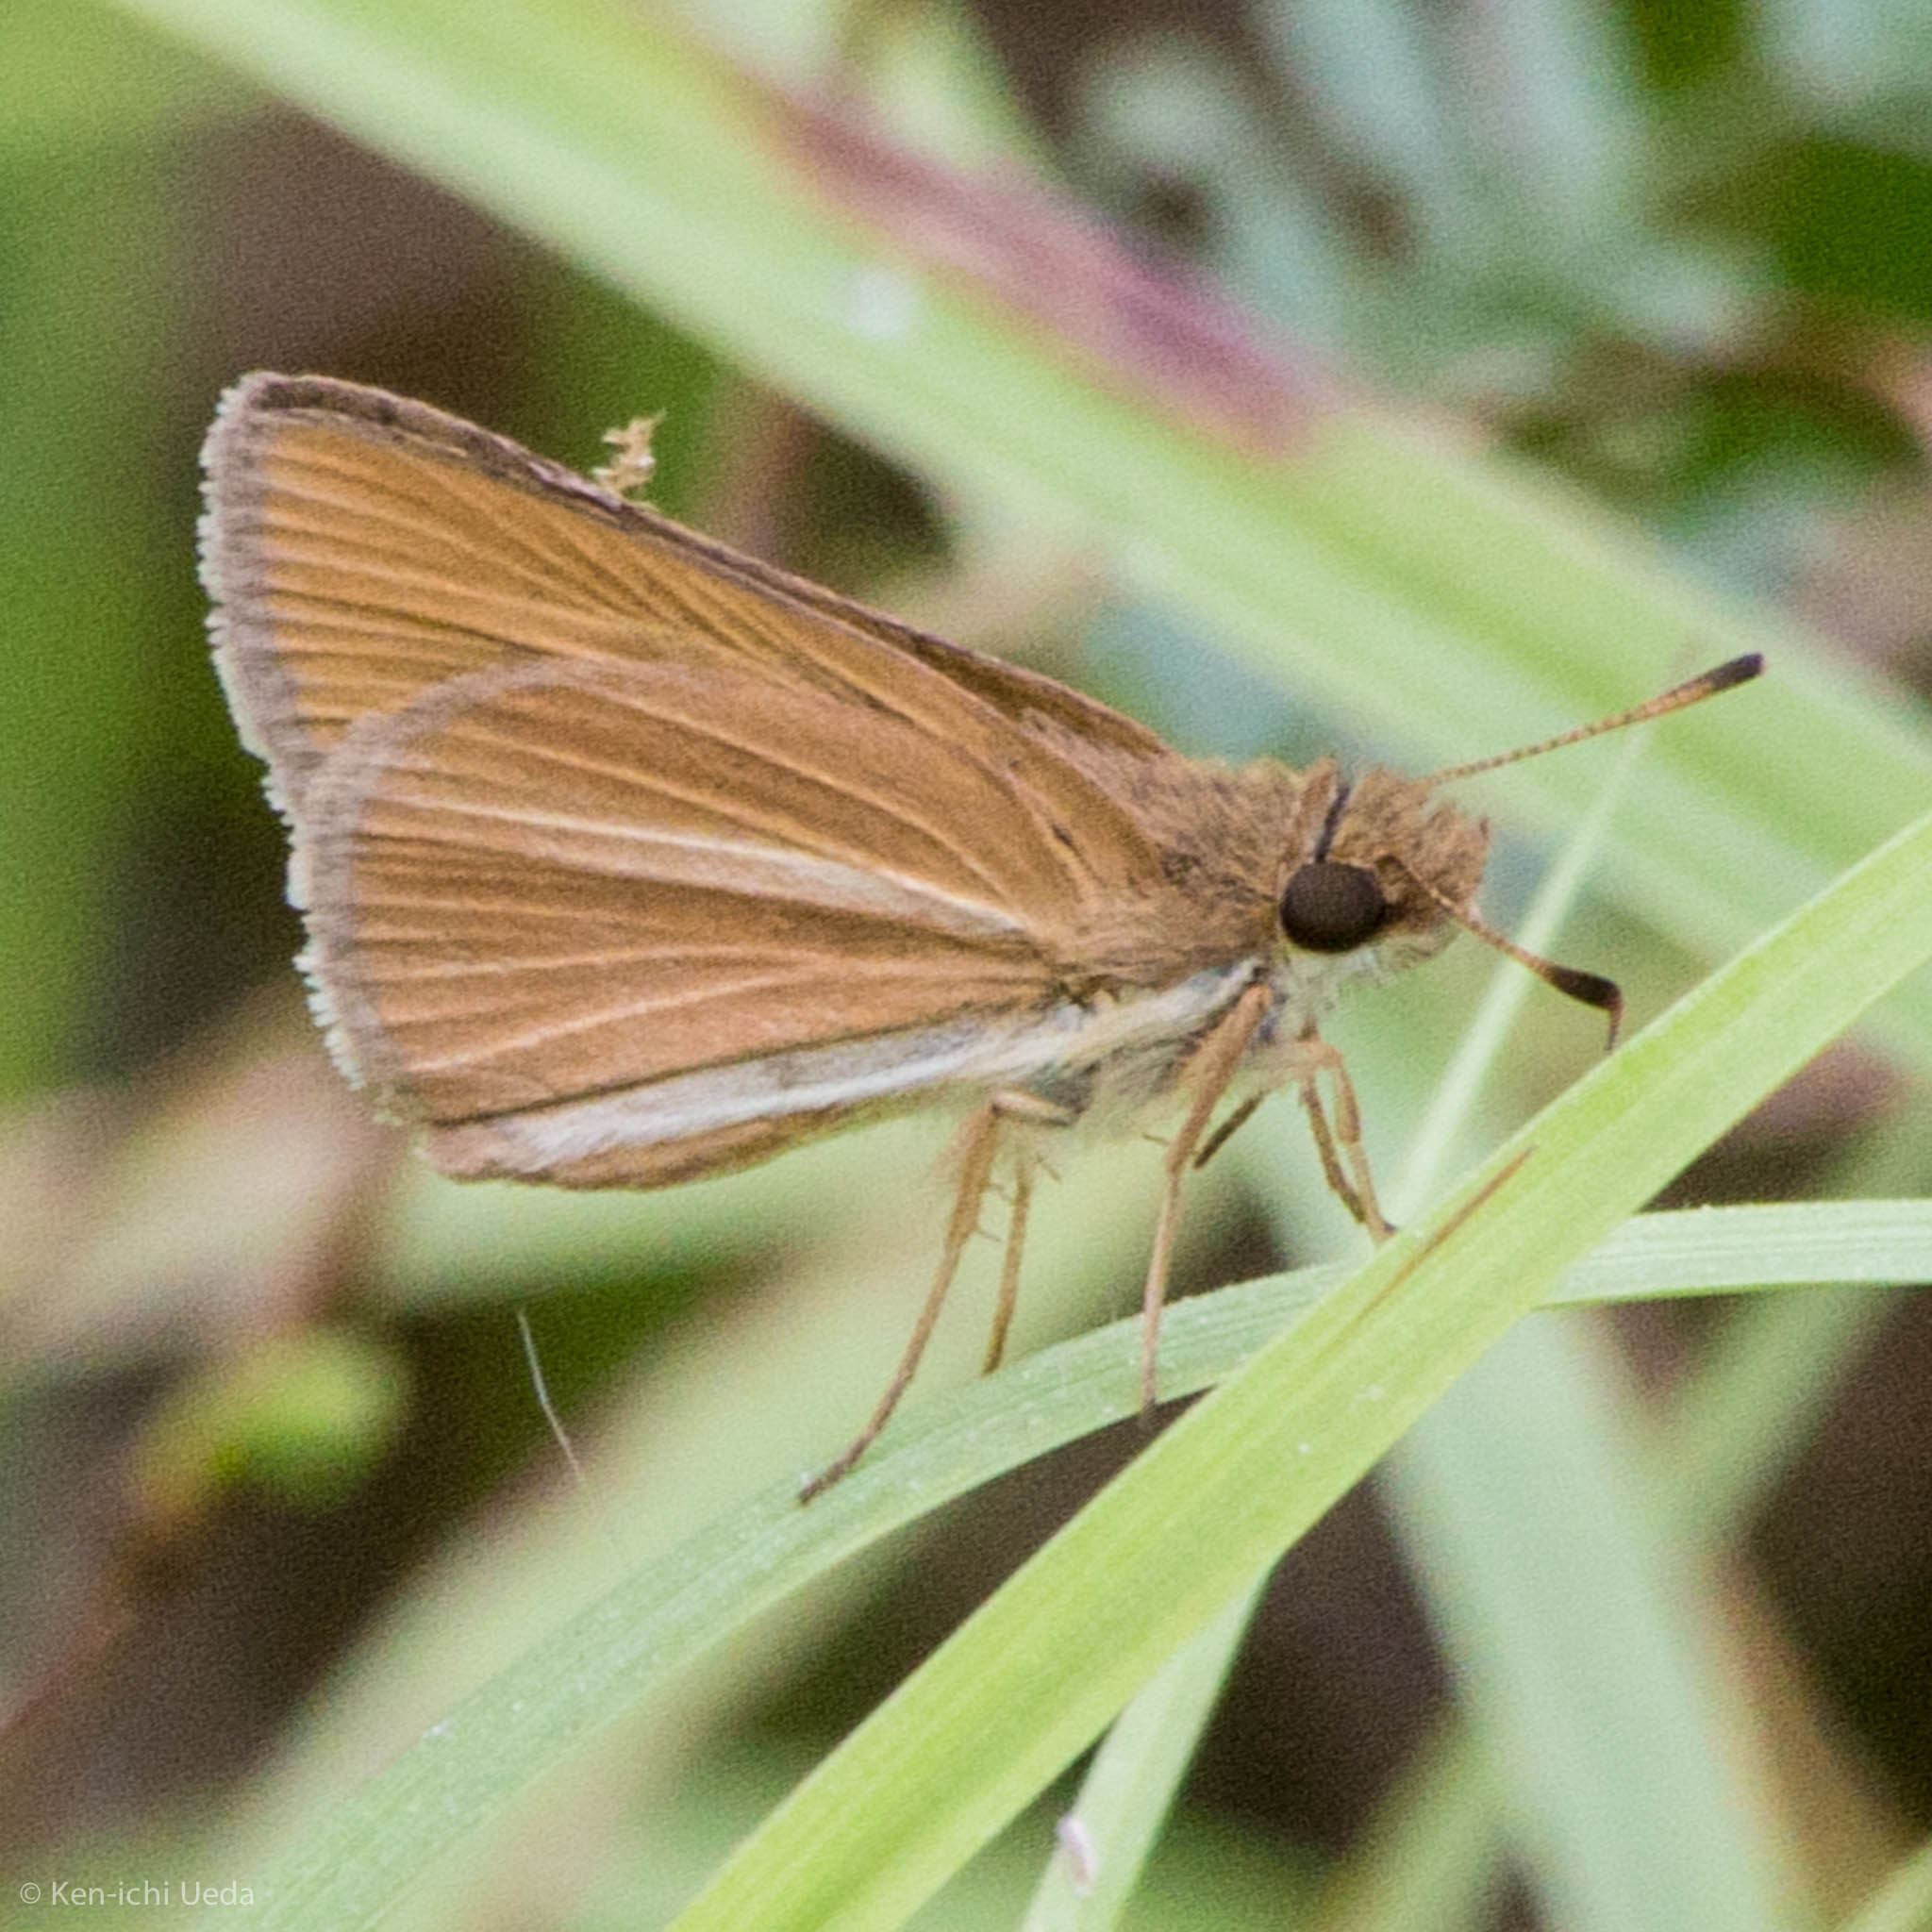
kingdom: Animalia
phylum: Arthropoda
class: Insecta
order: Lepidoptera
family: Hesperiidae
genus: Nastra
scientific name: Nastra perigenes
